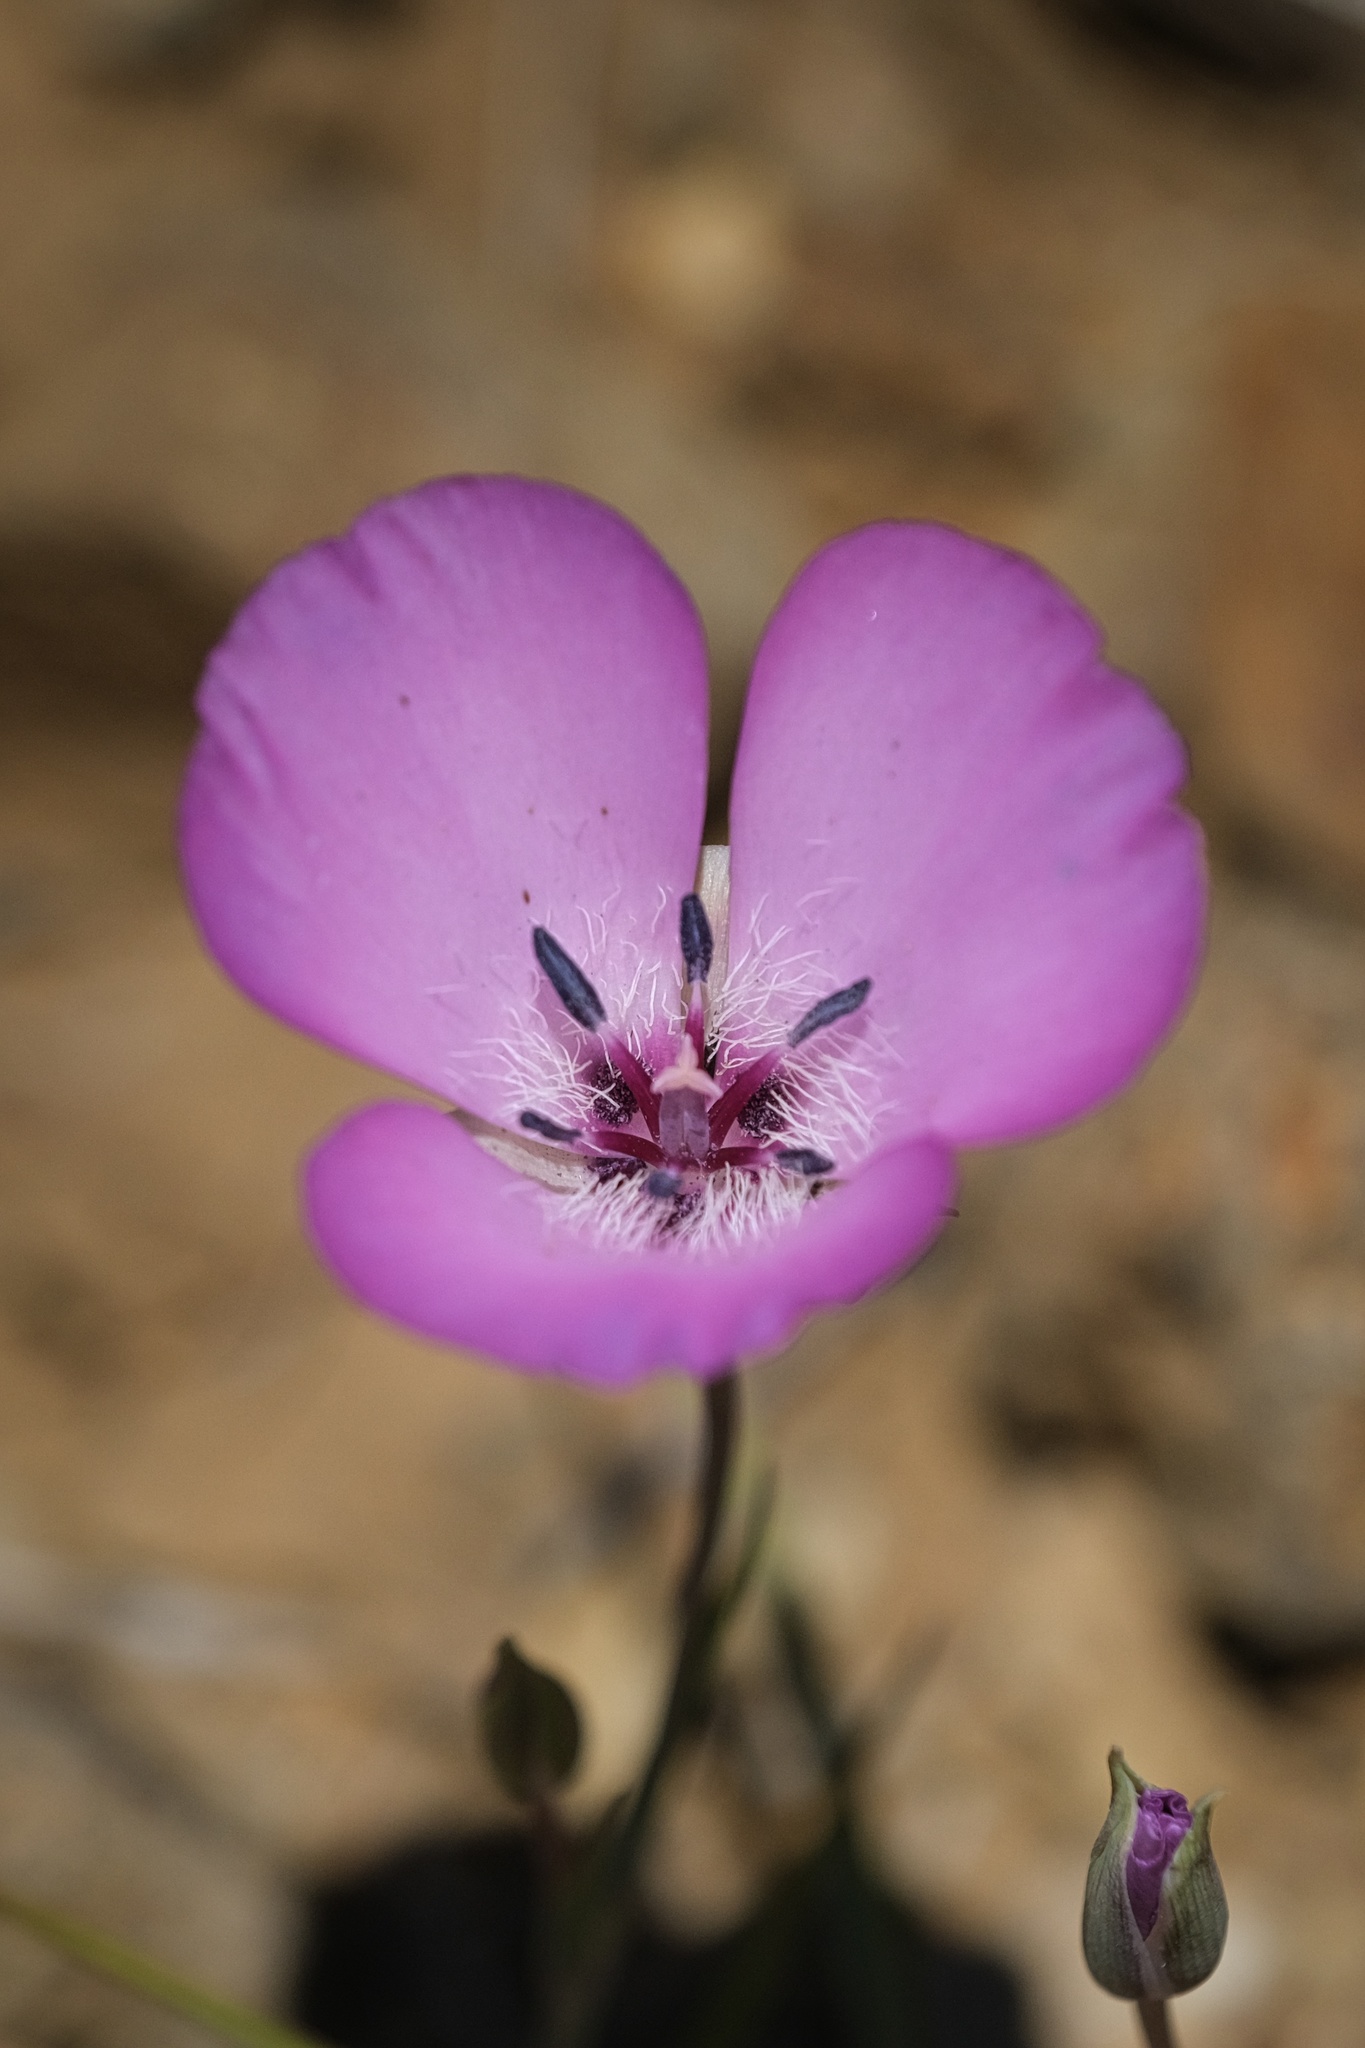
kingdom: Plantae
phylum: Tracheophyta
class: Liliopsida
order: Liliales
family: Liliaceae
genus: Calochortus
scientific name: Calochortus splendens
